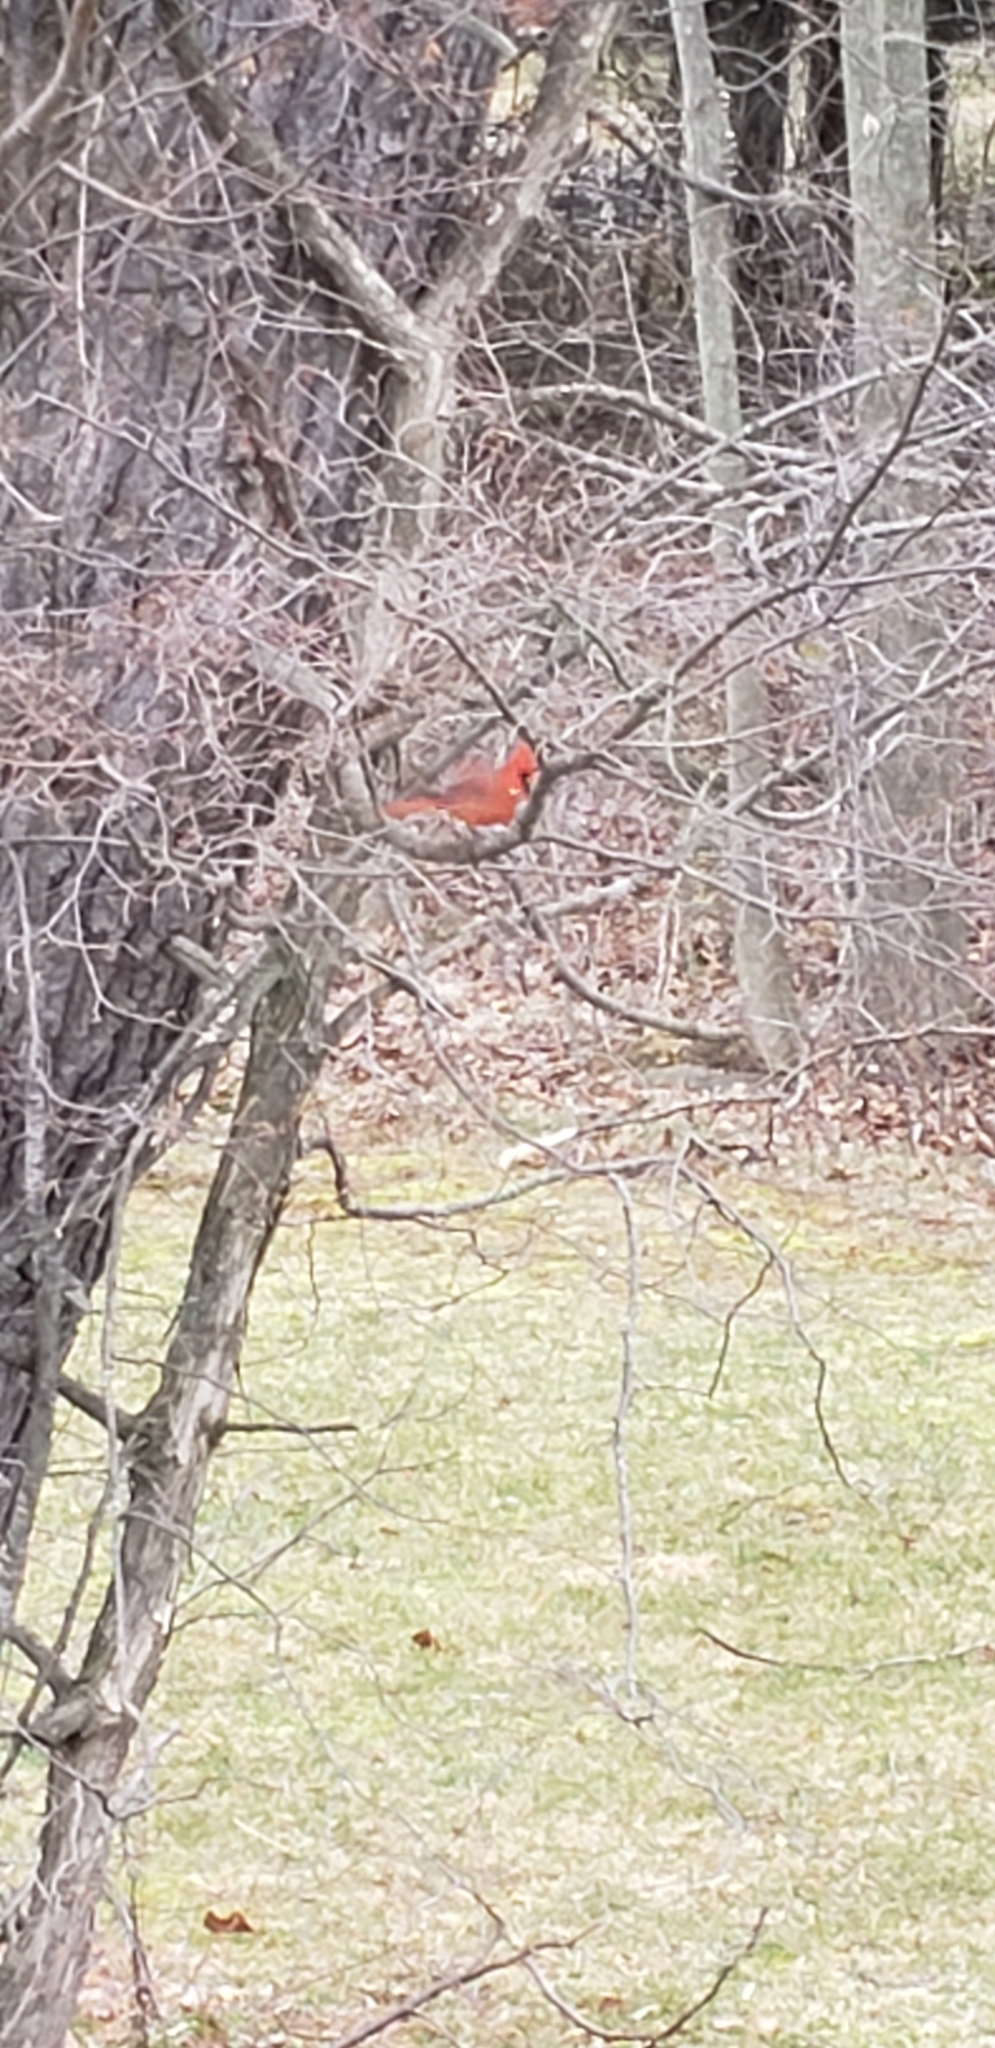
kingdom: Animalia
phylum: Chordata
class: Aves
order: Passeriformes
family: Cardinalidae
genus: Cardinalis
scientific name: Cardinalis cardinalis
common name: Northern cardinal
